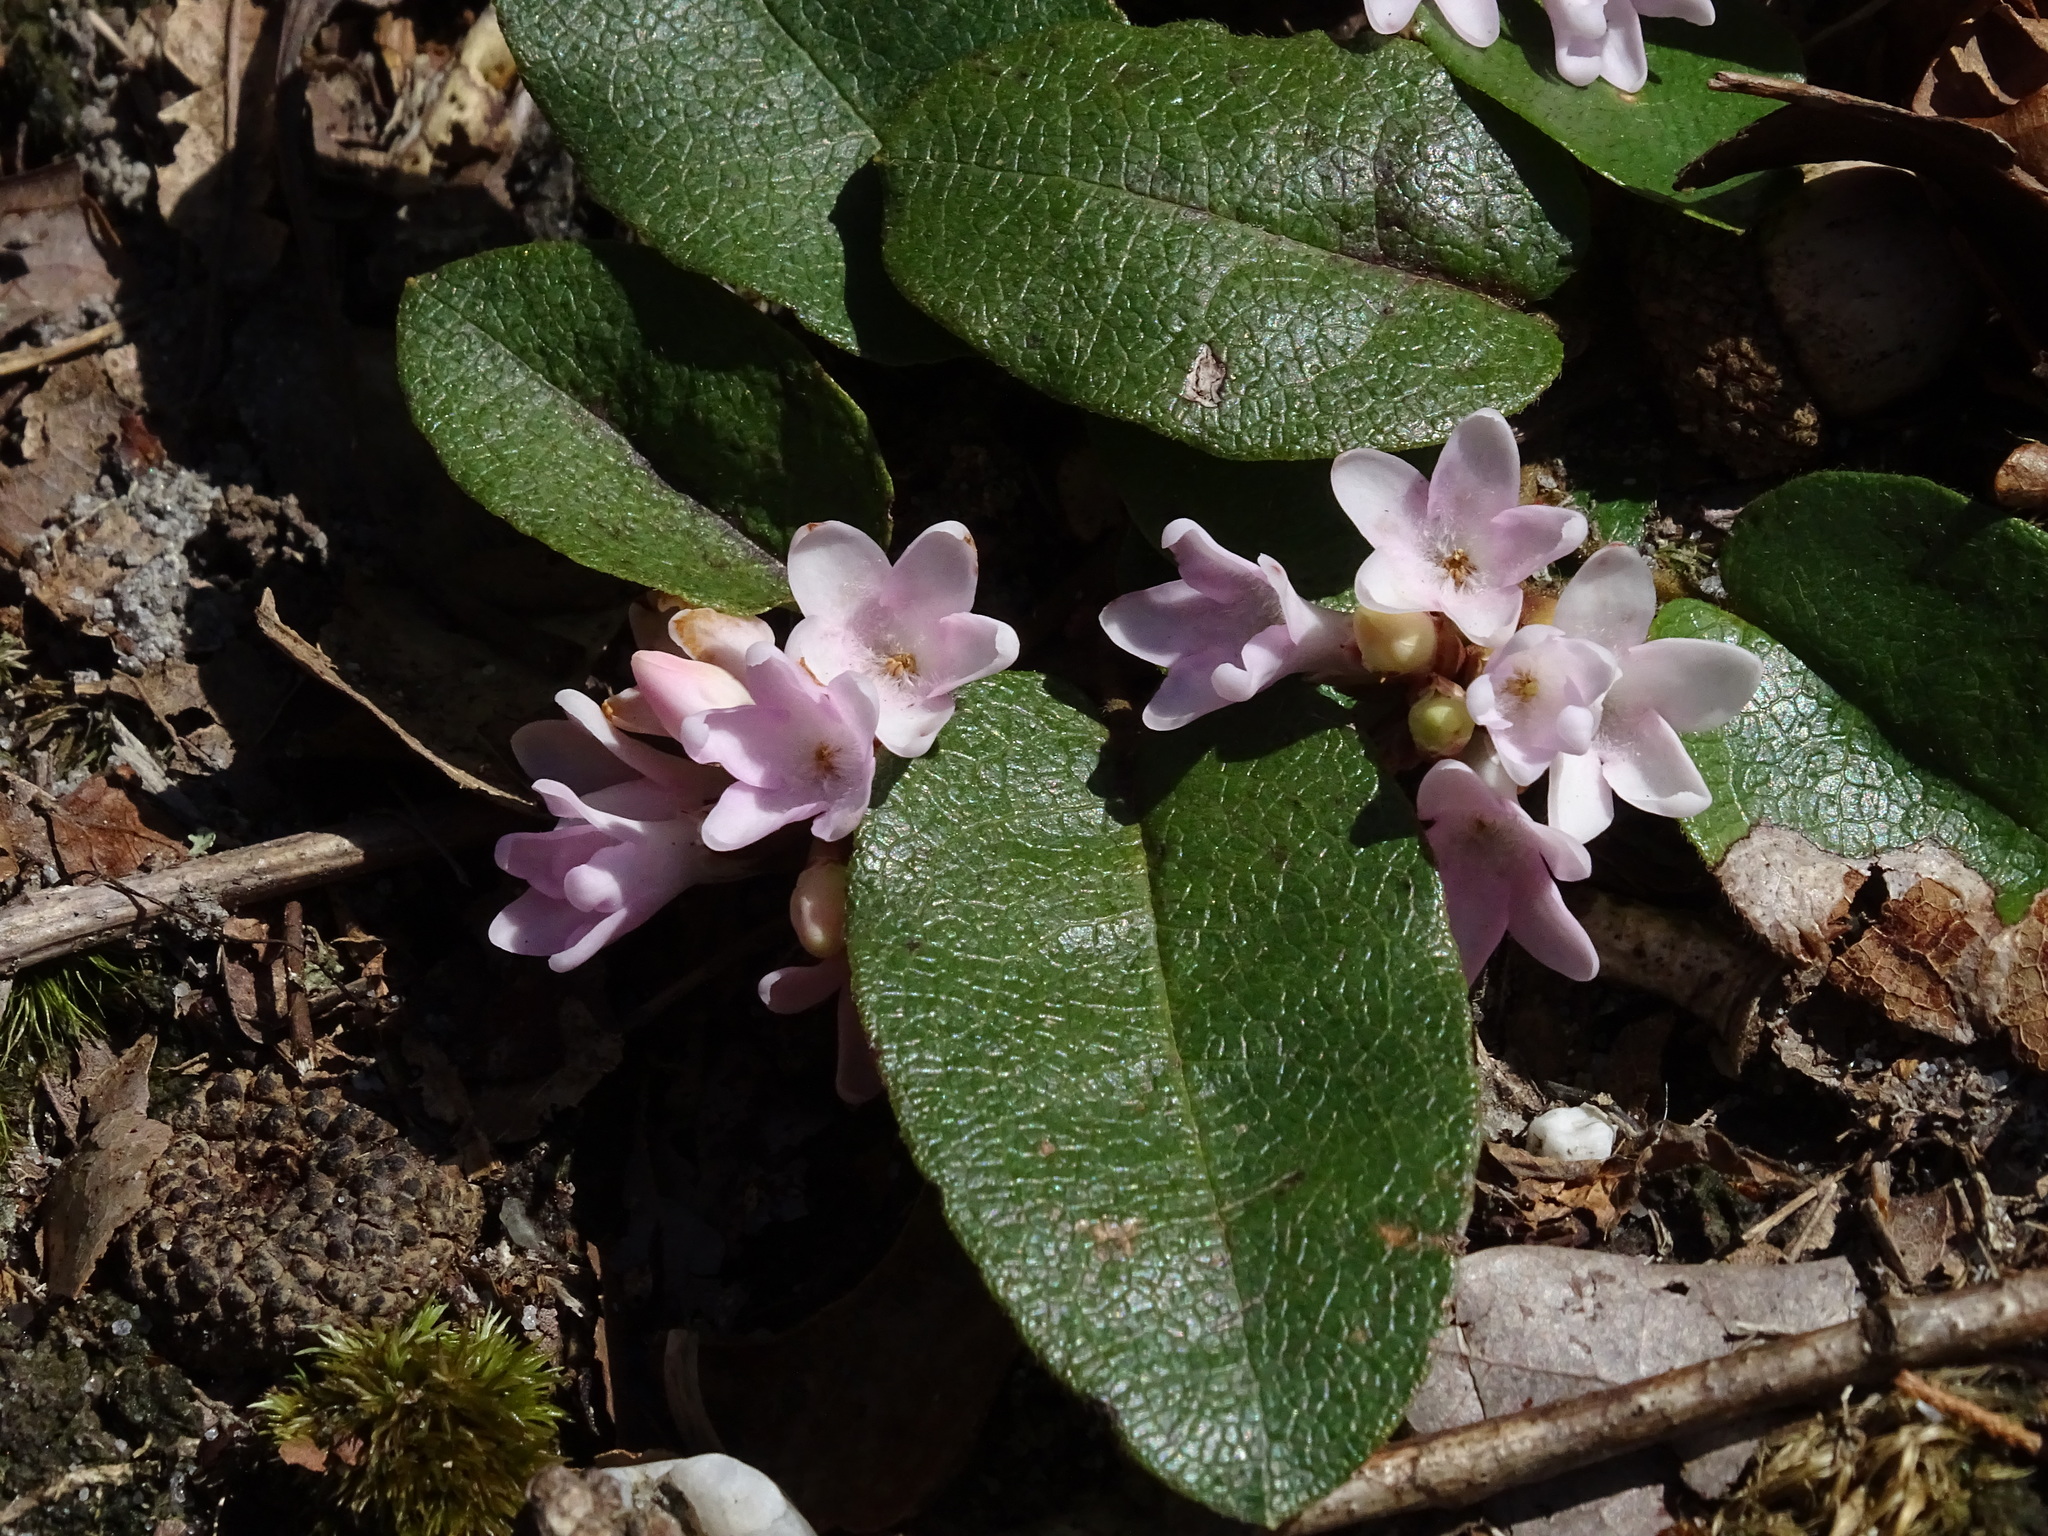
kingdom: Plantae
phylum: Tracheophyta
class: Magnoliopsida
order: Ericales
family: Ericaceae
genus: Epigaea
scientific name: Epigaea repens
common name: Gravelroot
